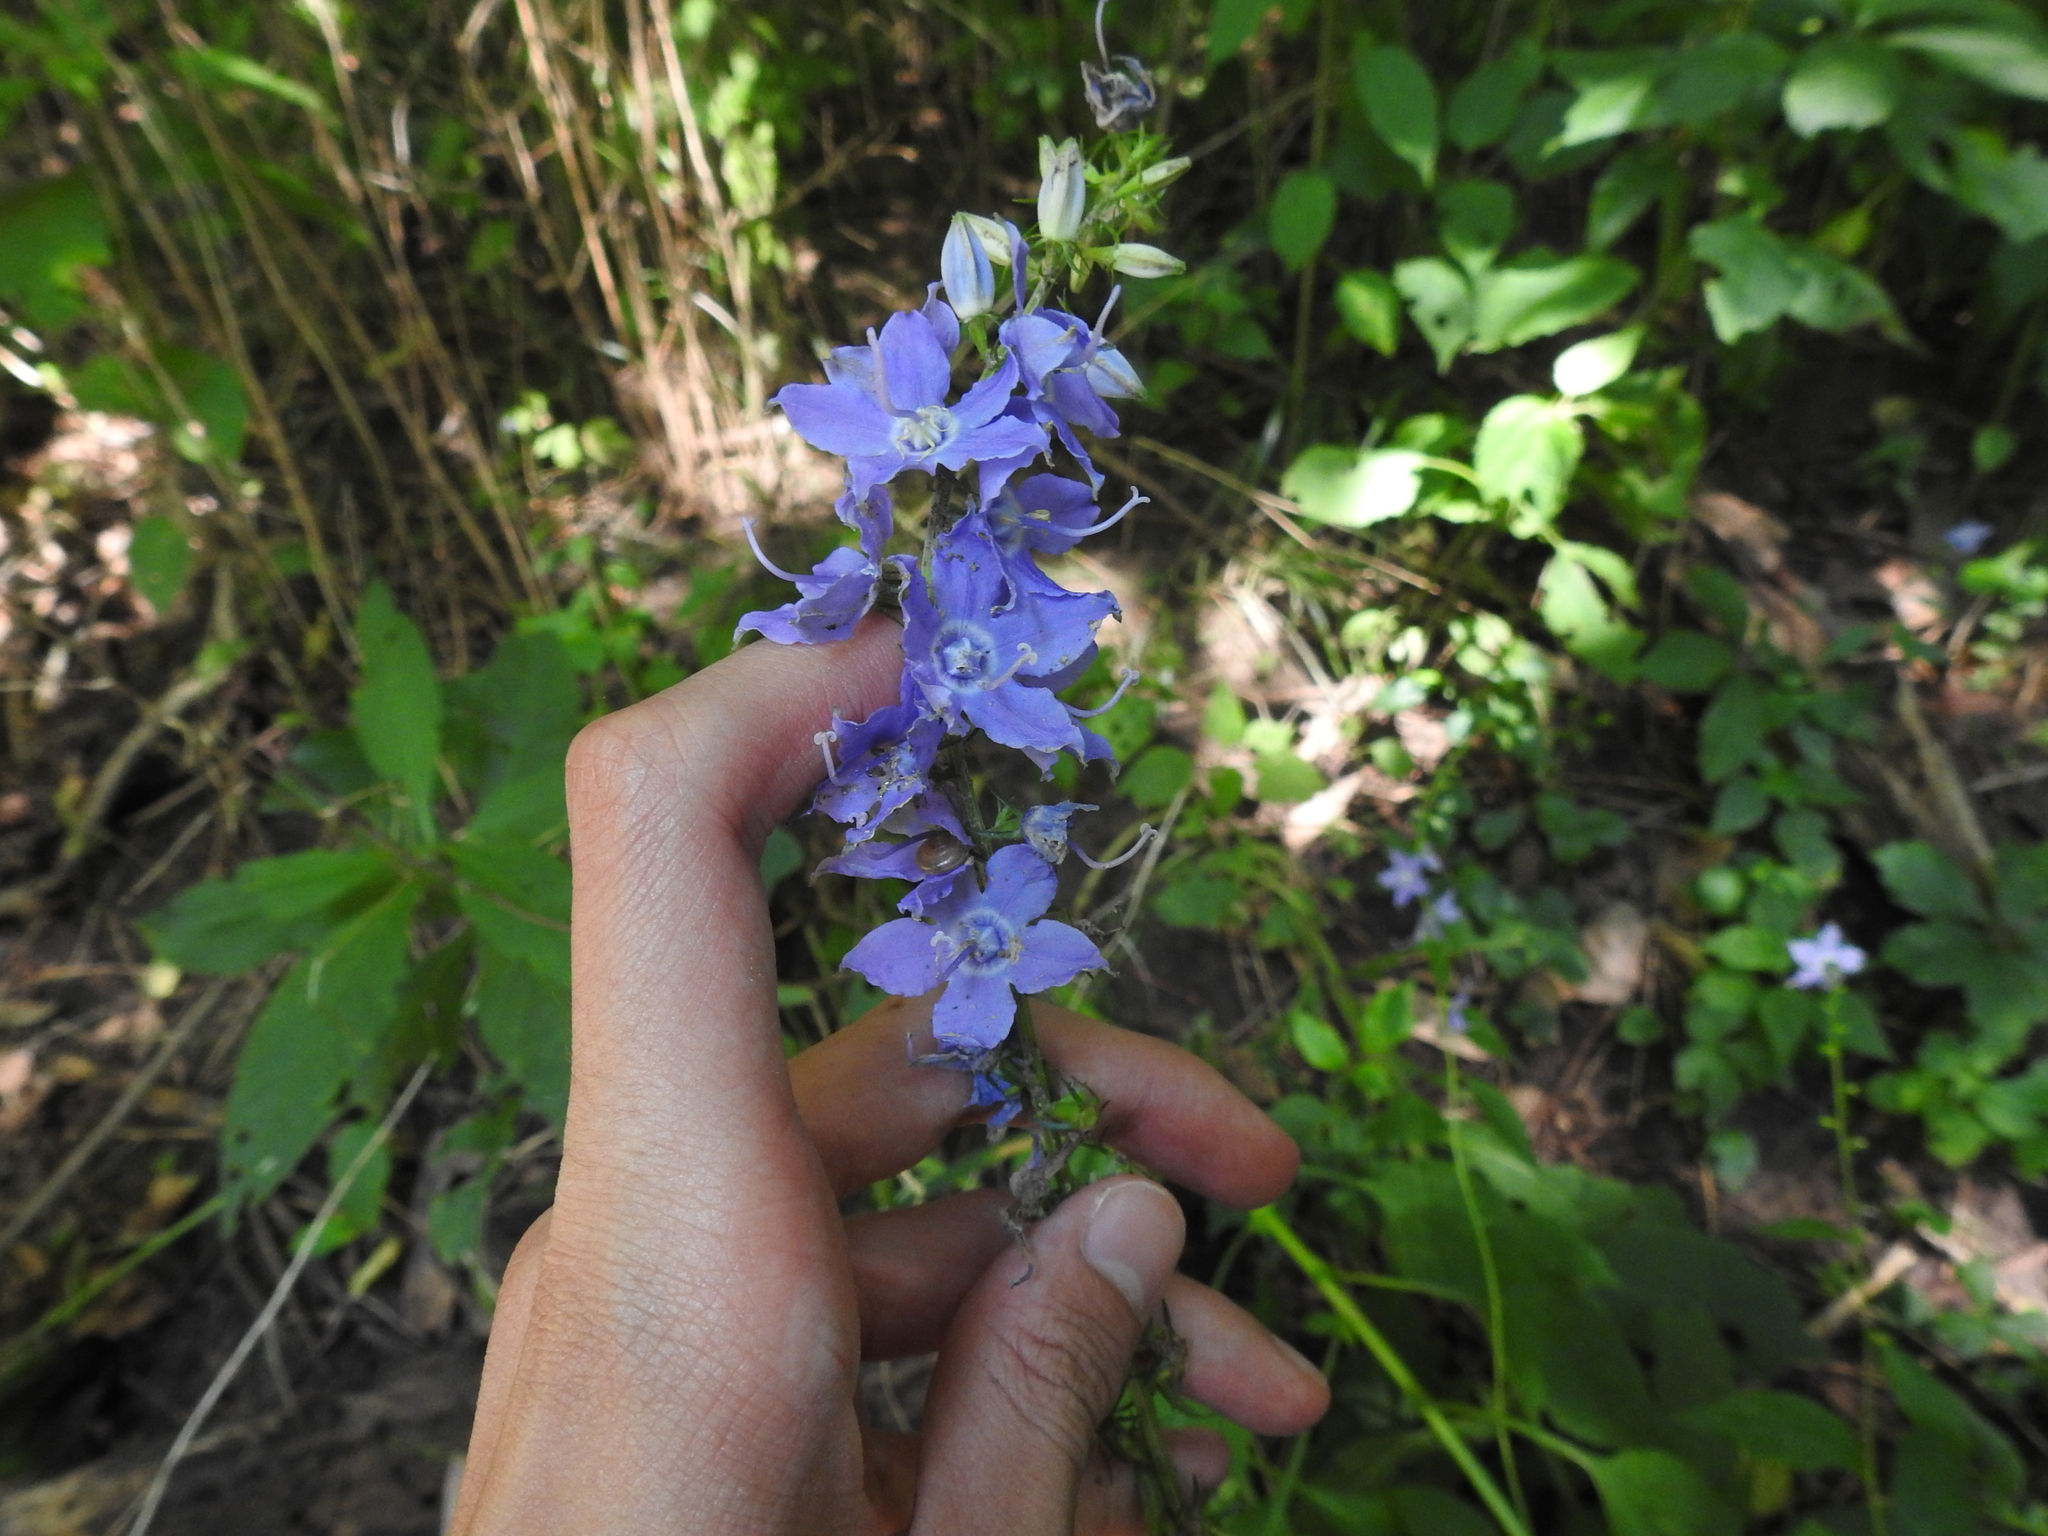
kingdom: Plantae
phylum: Tracheophyta
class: Magnoliopsida
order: Asterales
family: Campanulaceae
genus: Campanulastrum
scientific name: Campanulastrum americanum
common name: American bellflower
